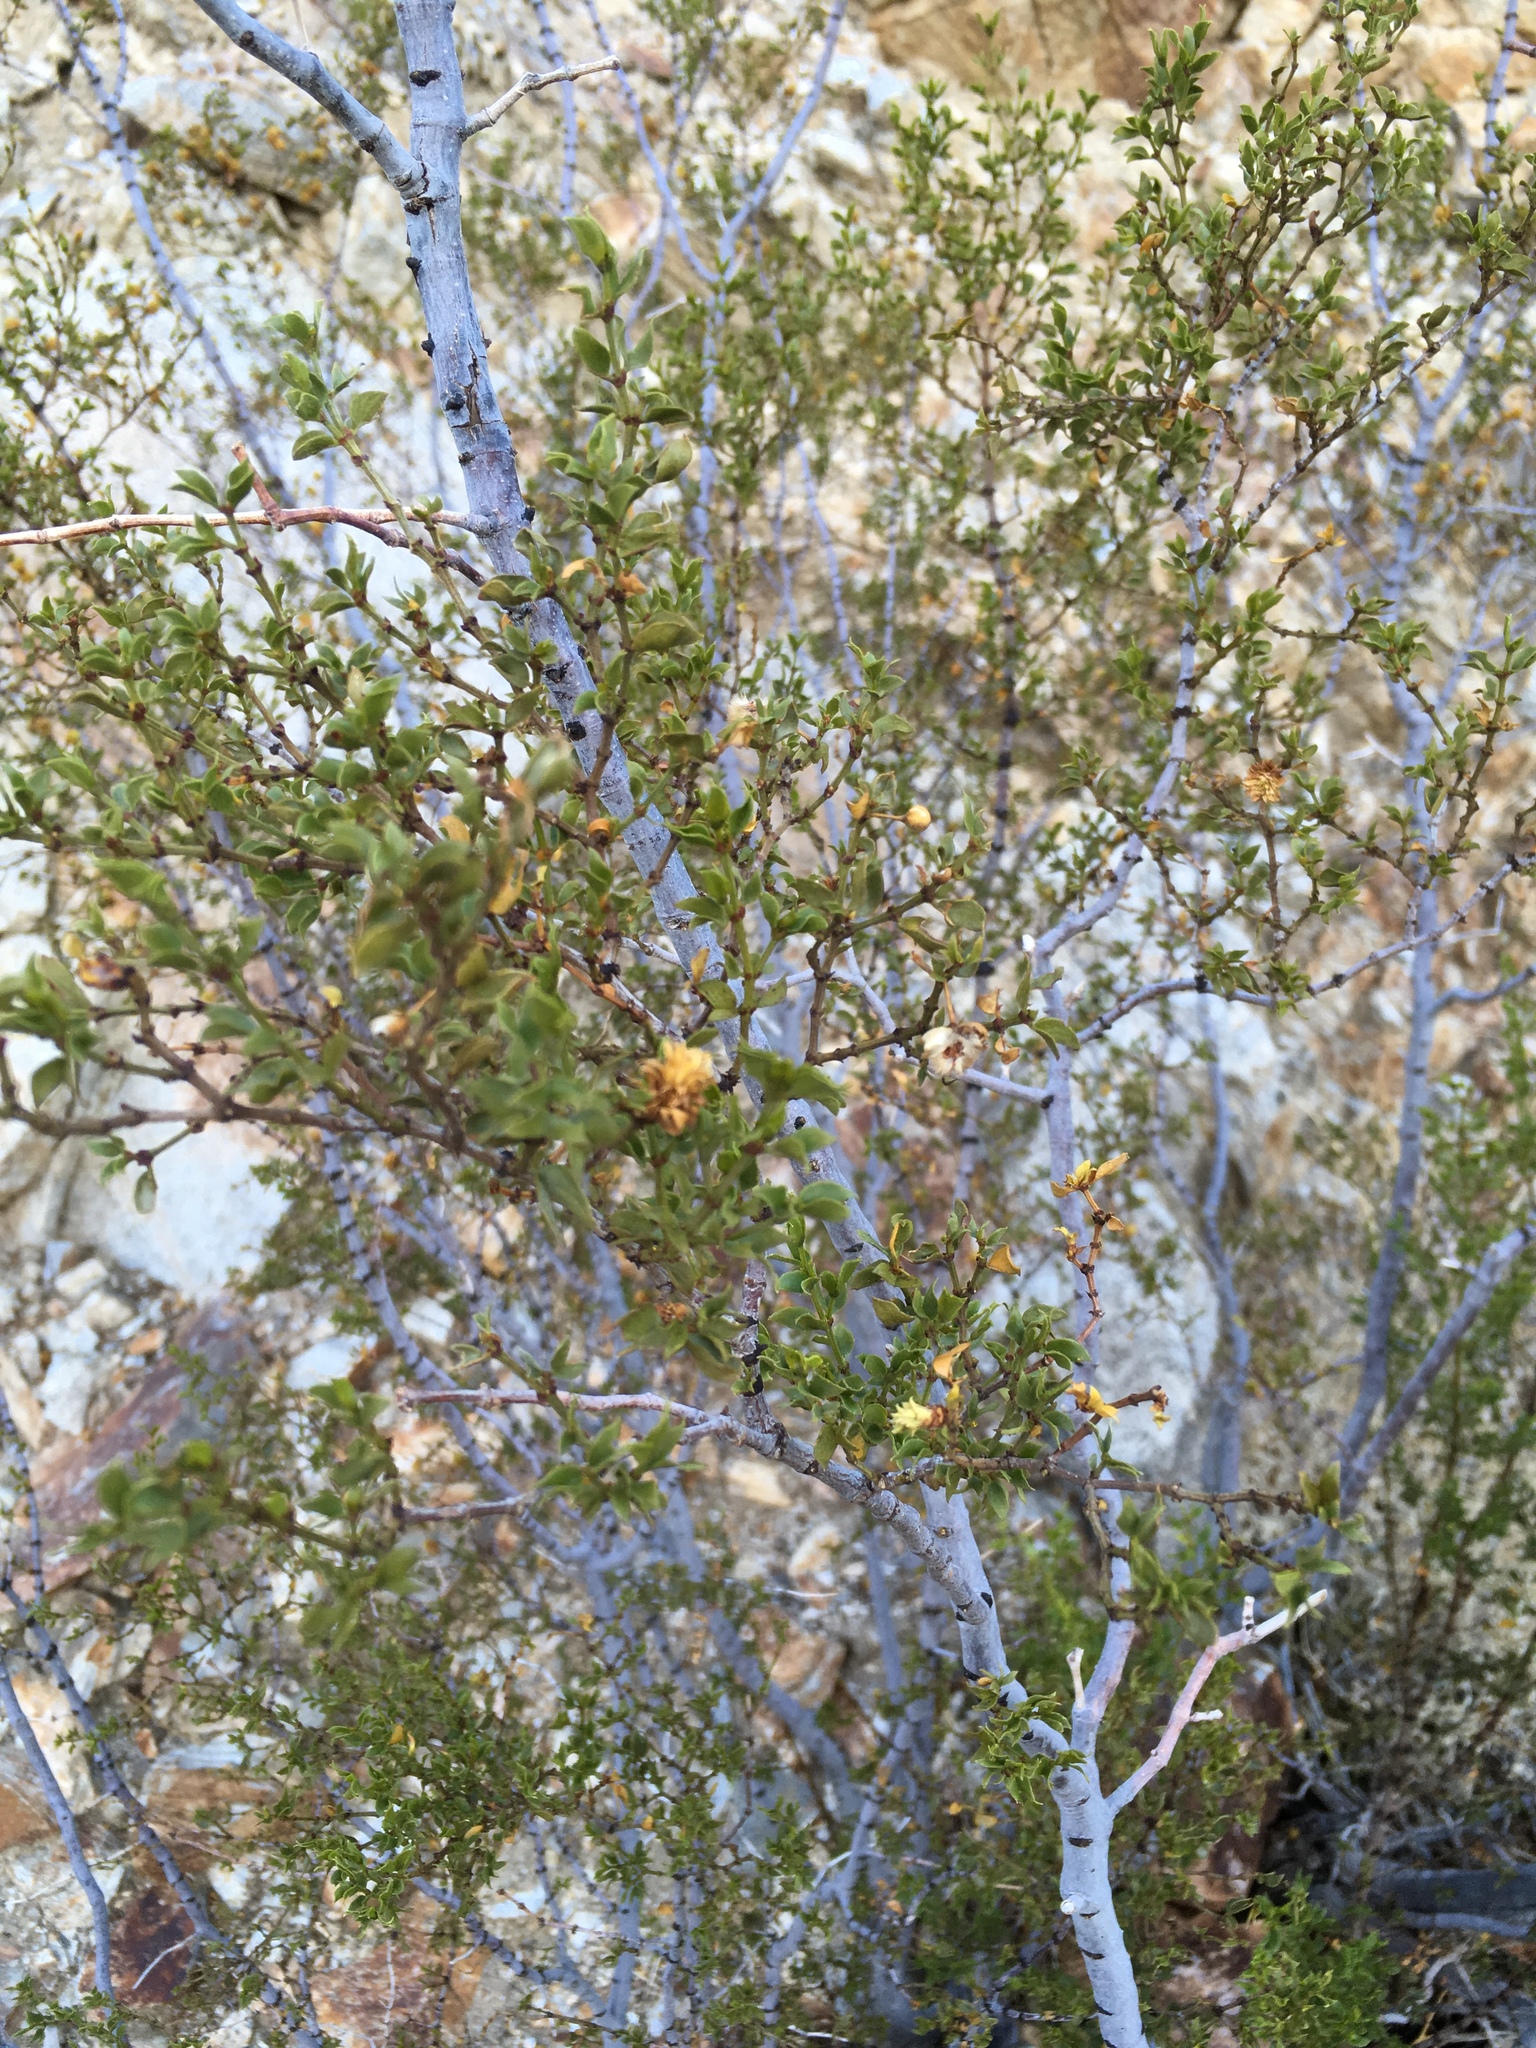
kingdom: Plantae
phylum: Tracheophyta
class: Magnoliopsida
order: Zygophyllales
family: Zygophyllaceae
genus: Larrea
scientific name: Larrea tridentata
